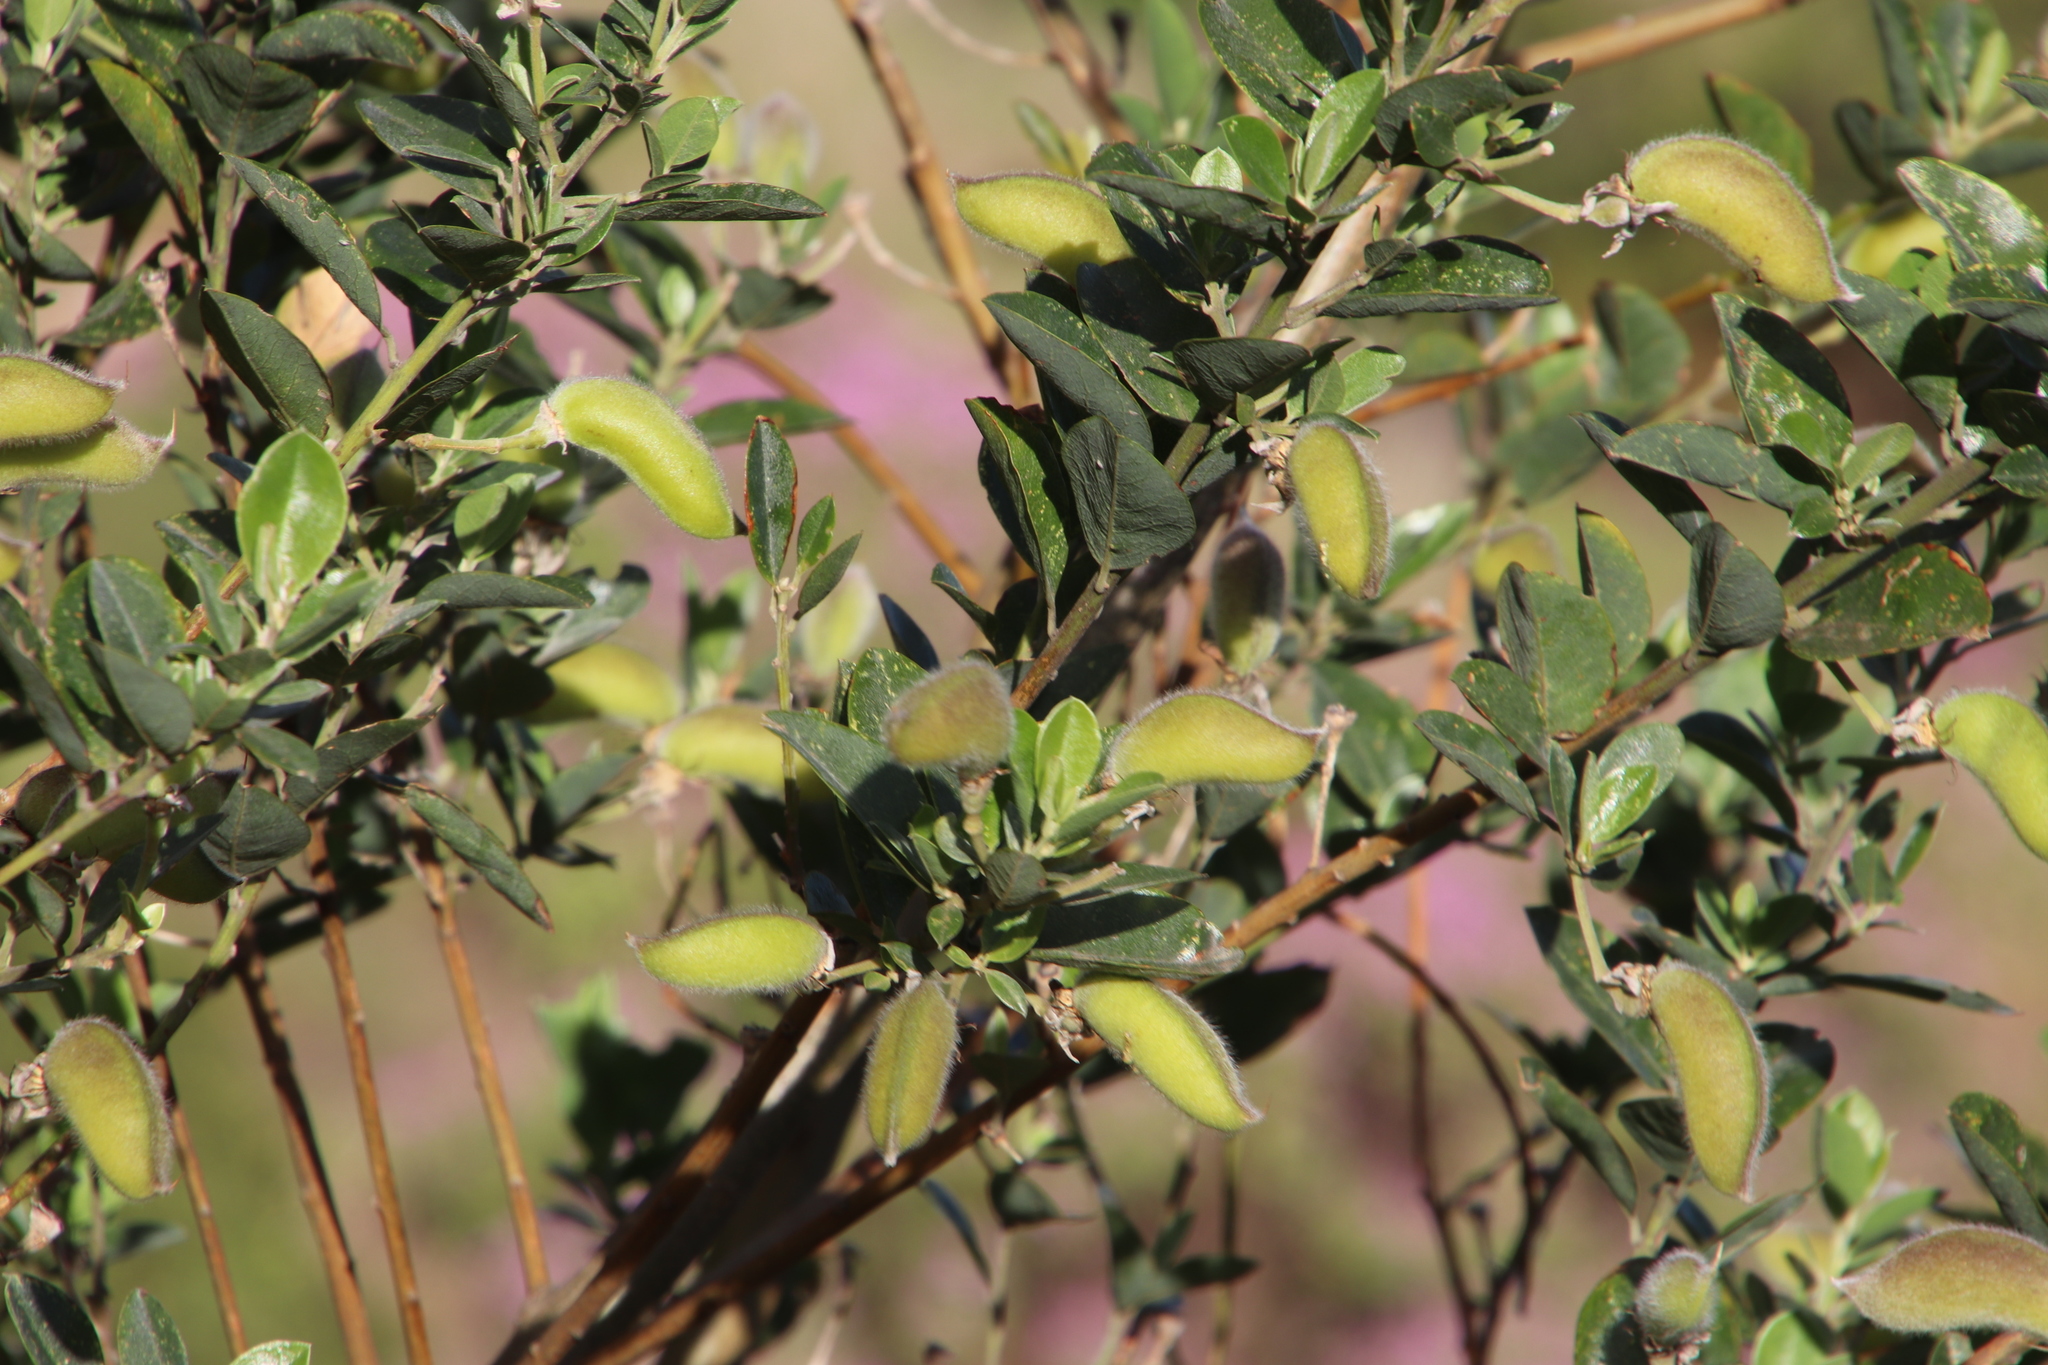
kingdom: Plantae
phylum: Tracheophyta
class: Magnoliopsida
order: Fabales
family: Fabaceae
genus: Podalyria
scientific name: Podalyria calyptrata
